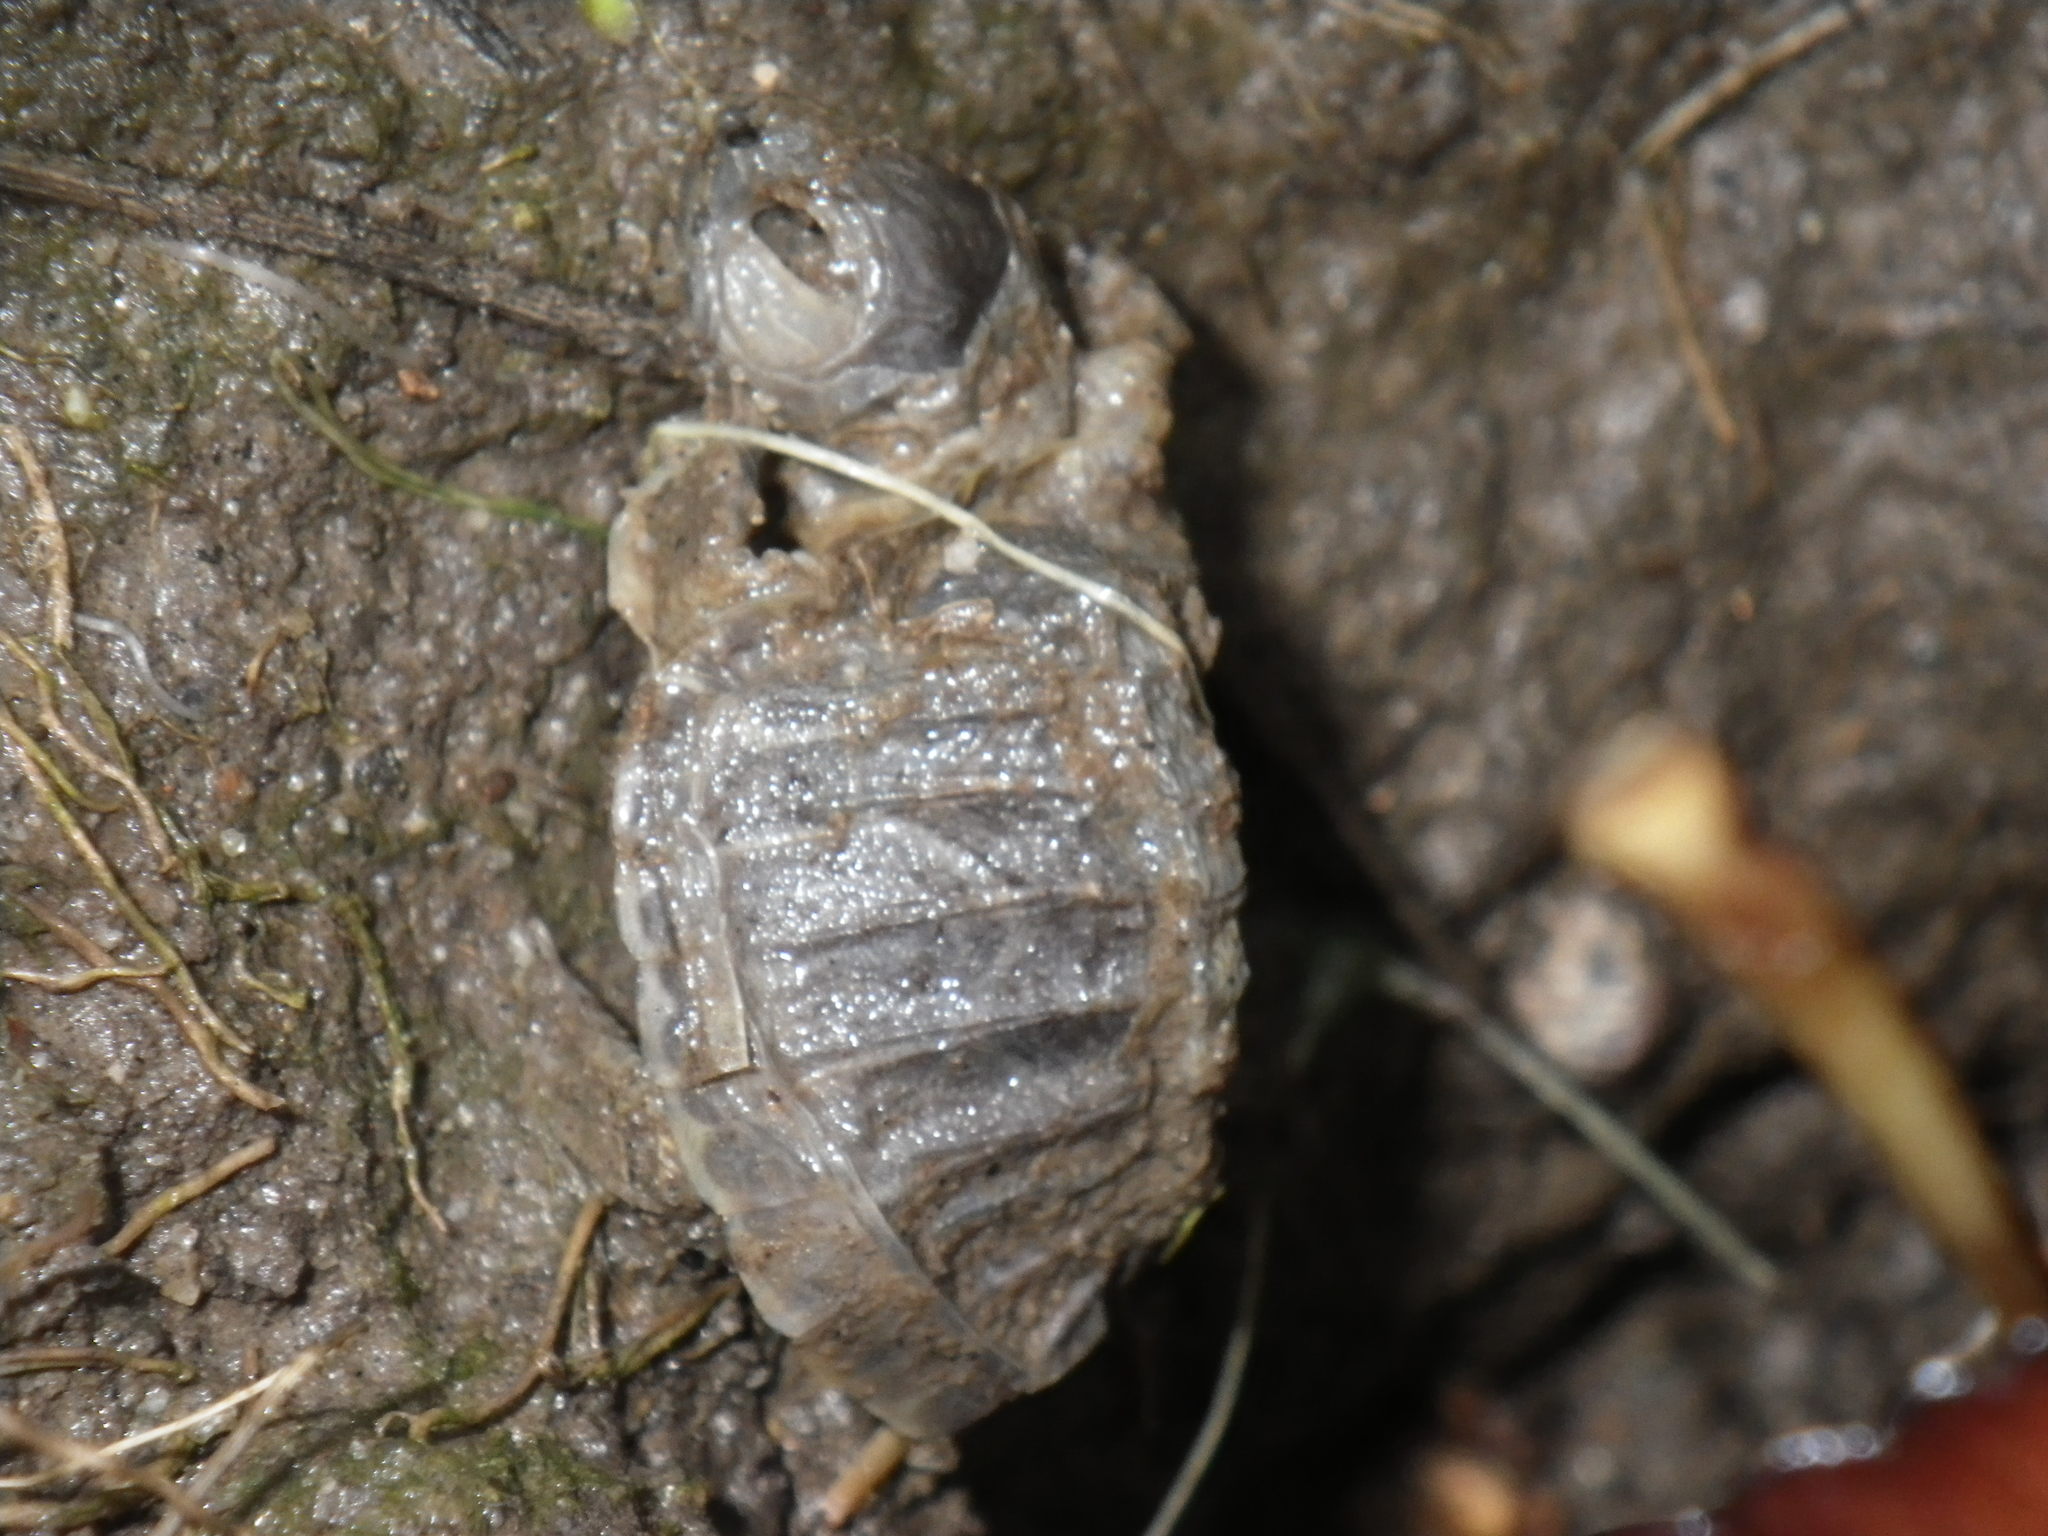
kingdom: Animalia
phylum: Chordata
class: Testudines
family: Emydidae
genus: Trachemys
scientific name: Trachemys scripta
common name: Slider
